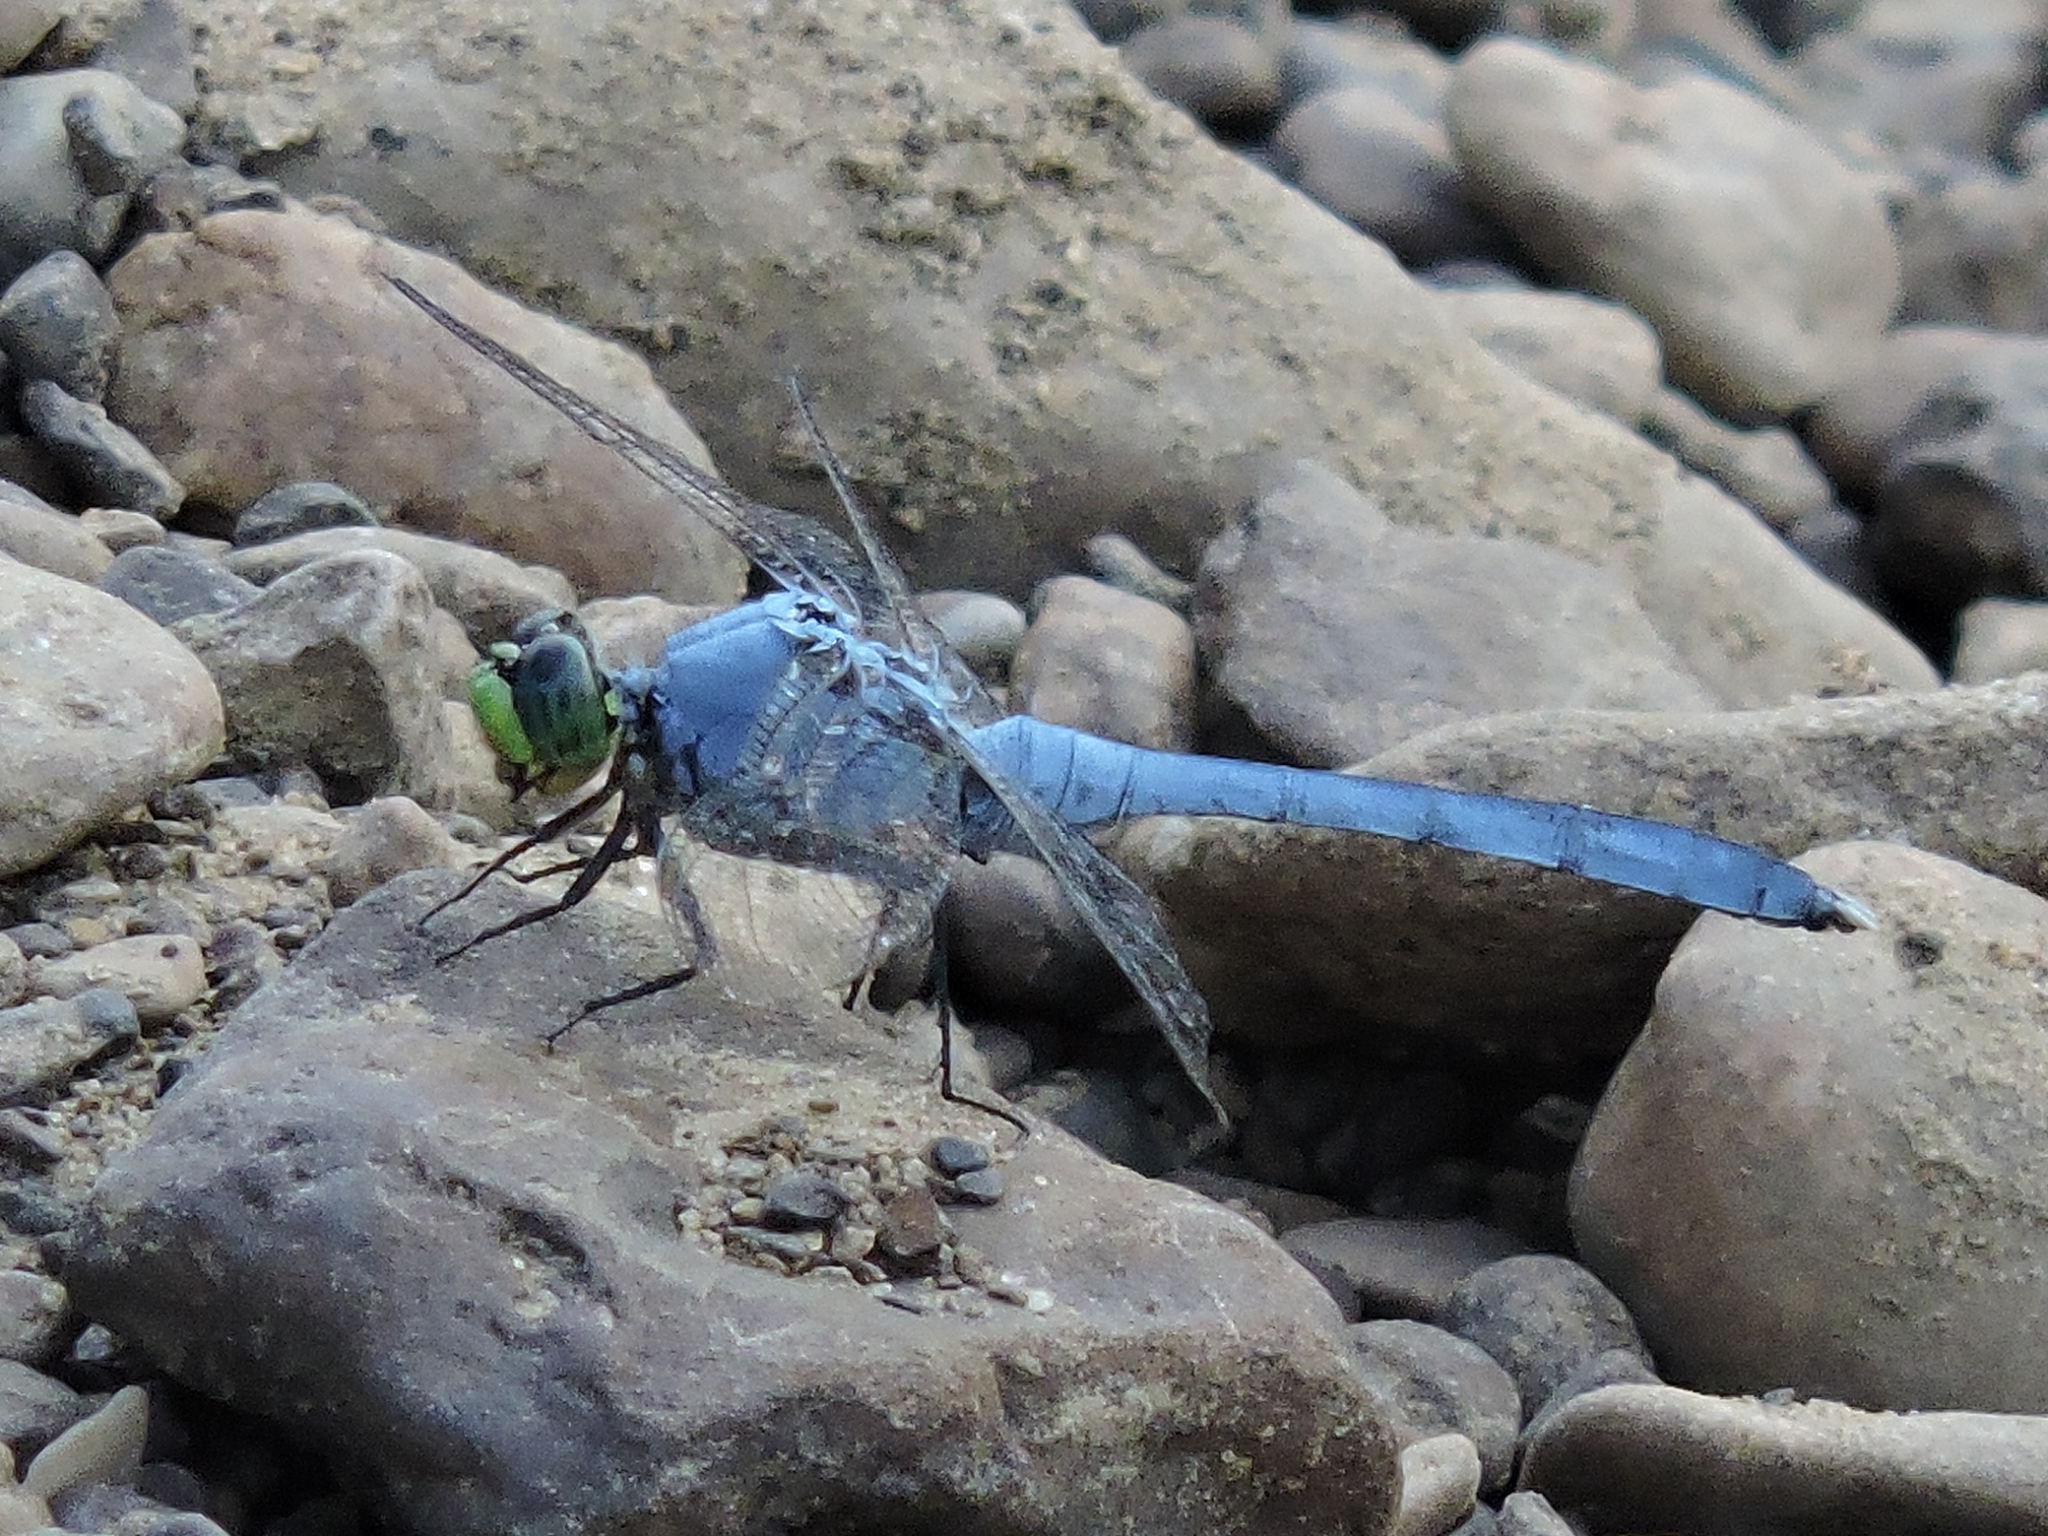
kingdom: Animalia
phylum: Arthropoda
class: Insecta
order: Odonata
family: Libellulidae
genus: Erythemis
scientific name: Erythemis simplicicollis
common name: Eastern pondhawk
